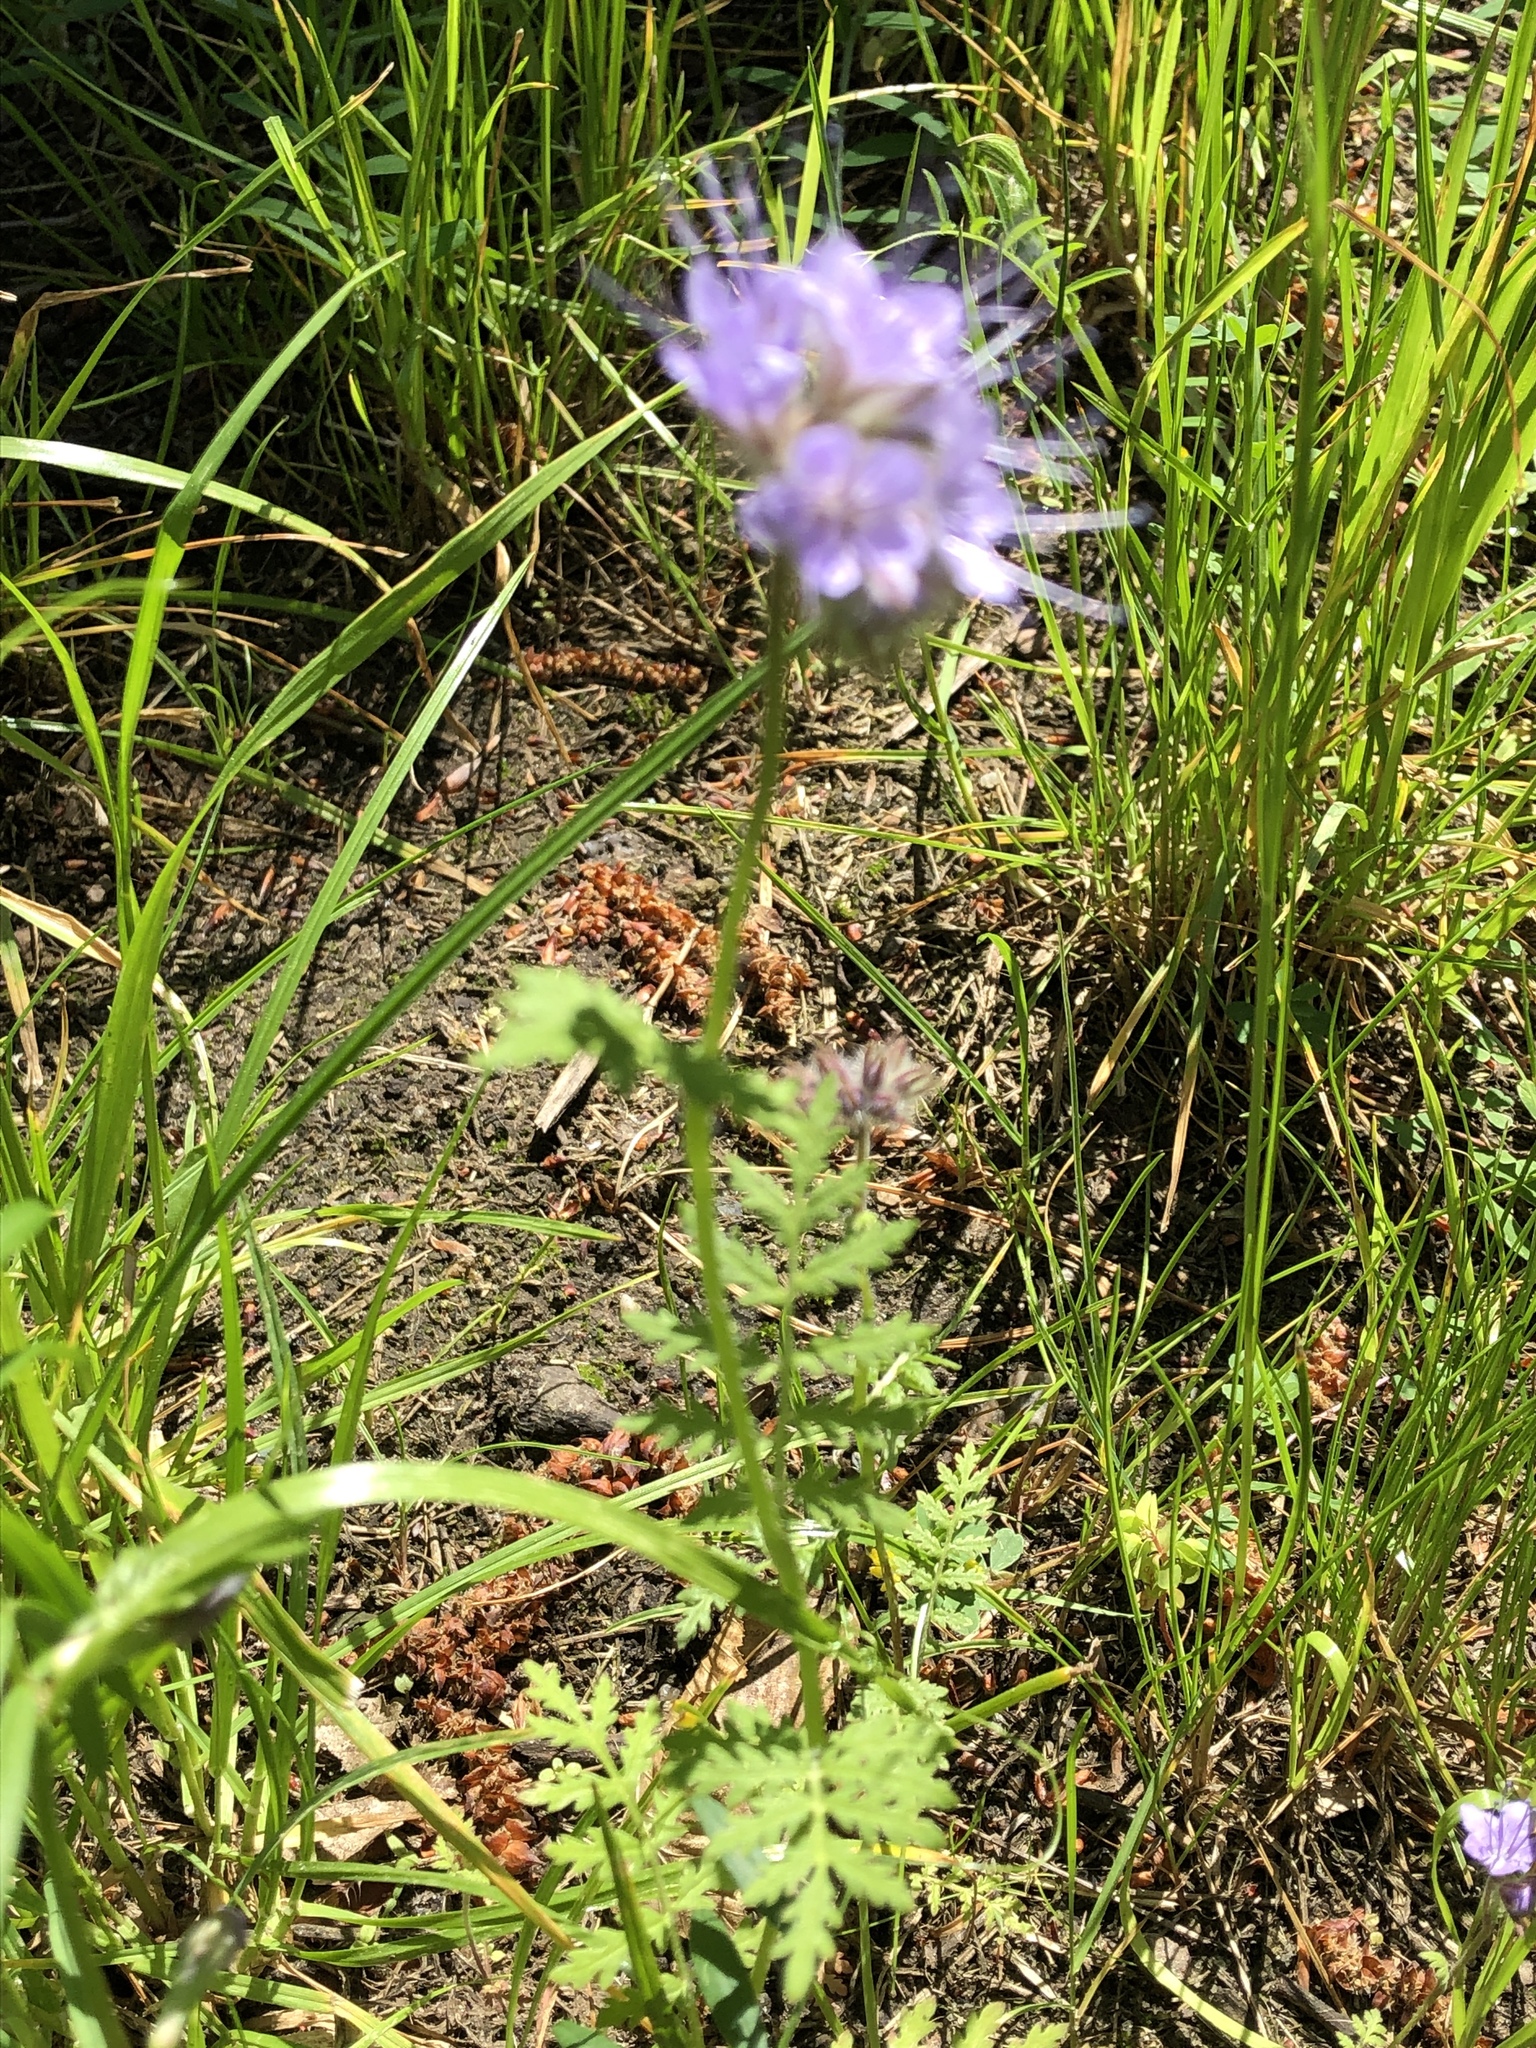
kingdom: Plantae
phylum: Tracheophyta
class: Magnoliopsida
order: Boraginales
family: Hydrophyllaceae
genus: Phacelia
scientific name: Phacelia tanacetifolia
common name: Phacelia
